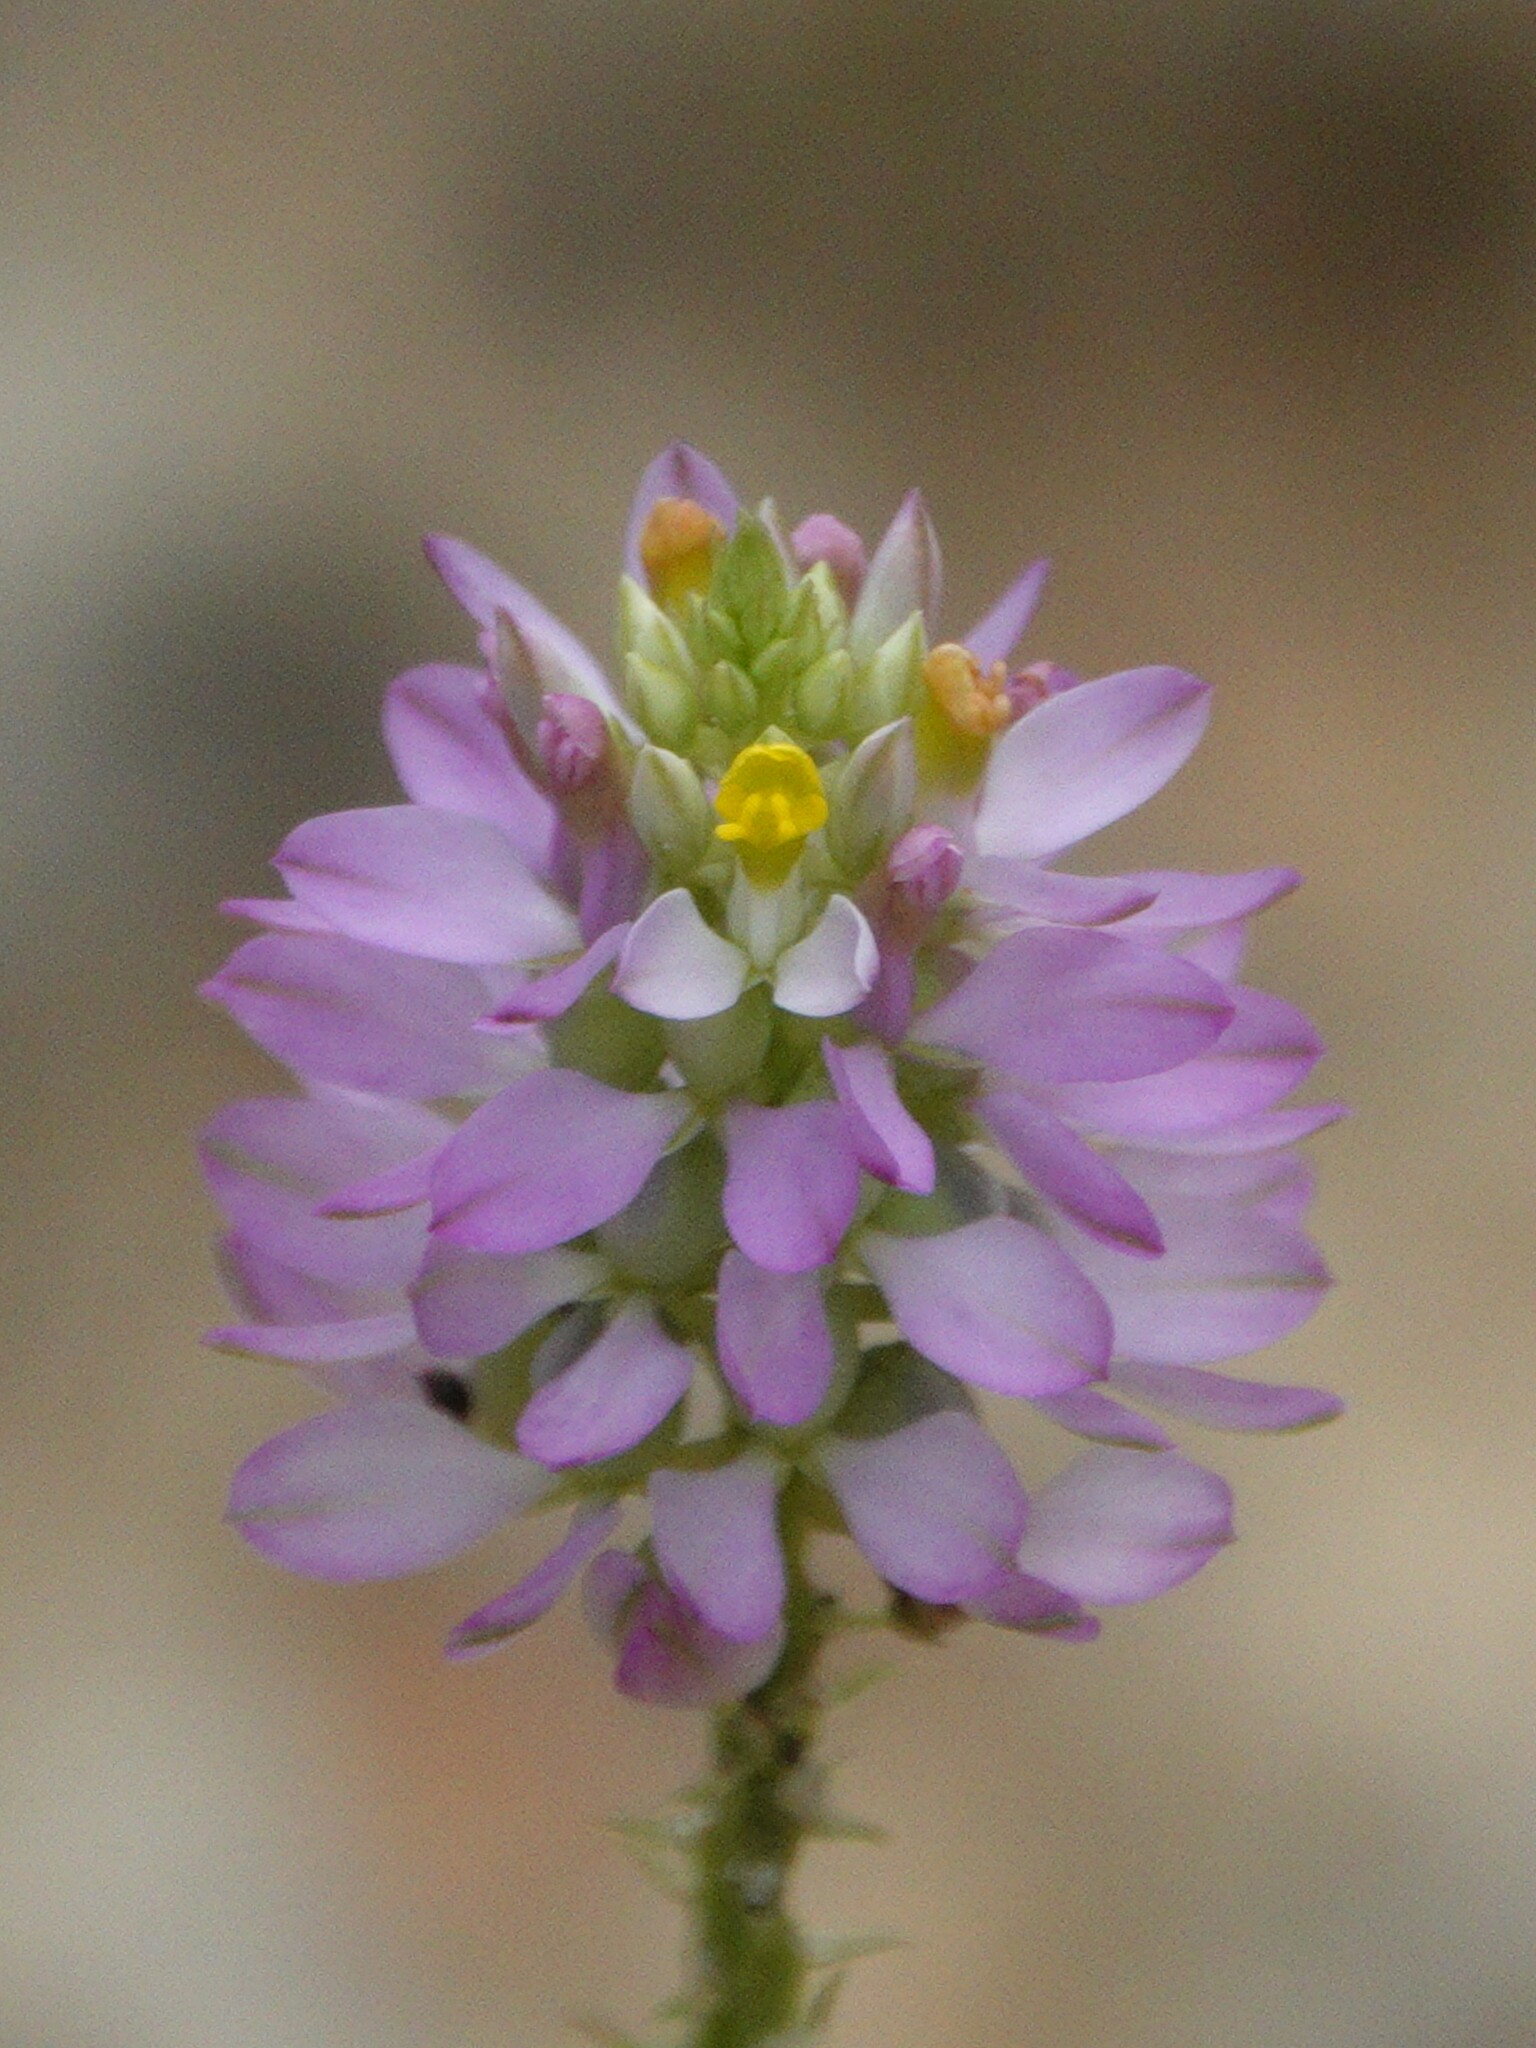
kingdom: Plantae
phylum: Tracheophyta
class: Magnoliopsida
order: Fabales
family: Polygalaceae
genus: Polygala
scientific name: Polygala curtissii
